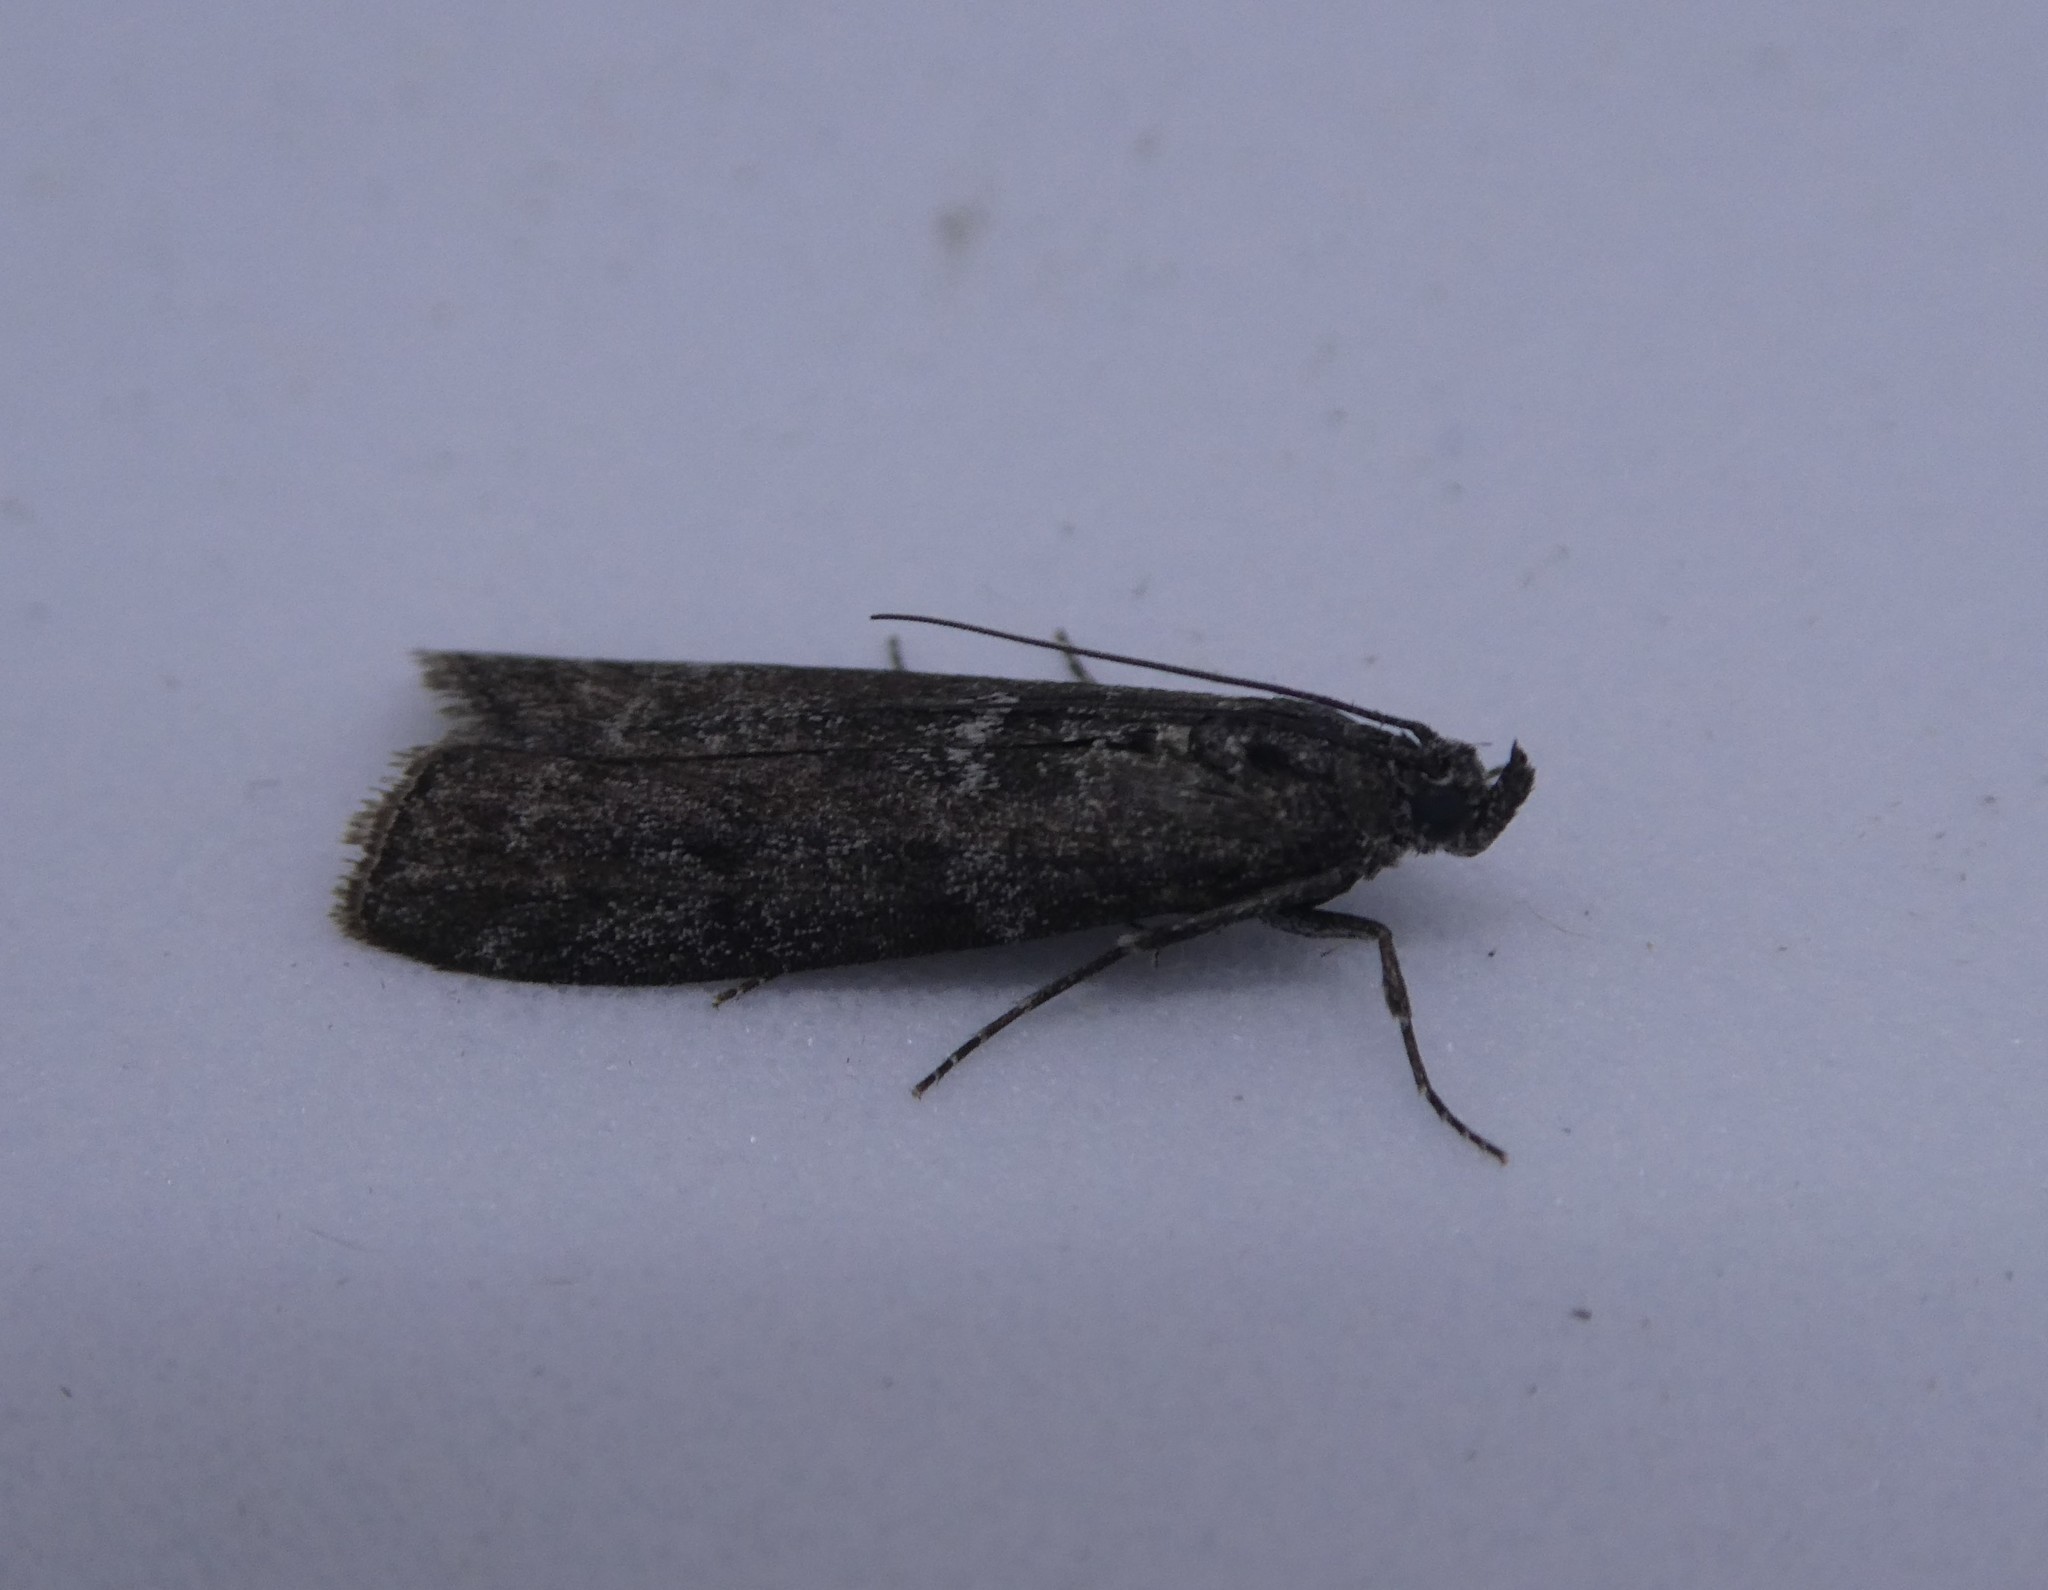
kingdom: Animalia
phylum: Arthropoda
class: Insecta
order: Lepidoptera
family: Pyralidae
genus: Pyla
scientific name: Pyla fusca
